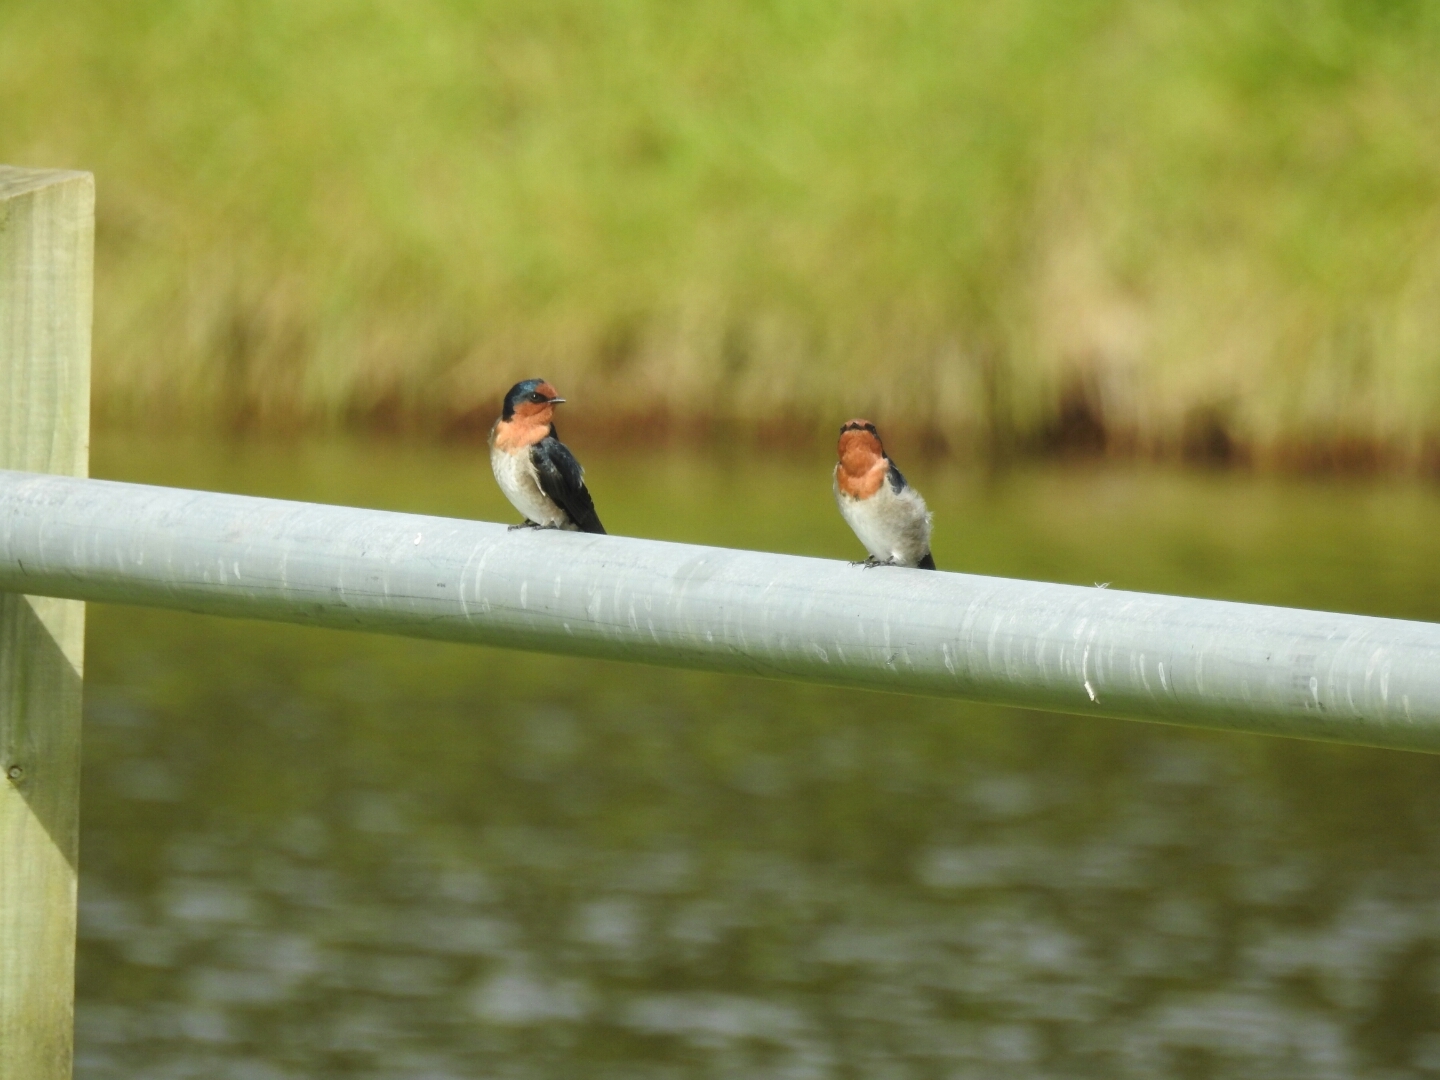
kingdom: Animalia
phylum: Chordata
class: Aves
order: Passeriformes
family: Hirundinidae
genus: Hirundo
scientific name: Hirundo neoxena
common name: Welcome swallow
